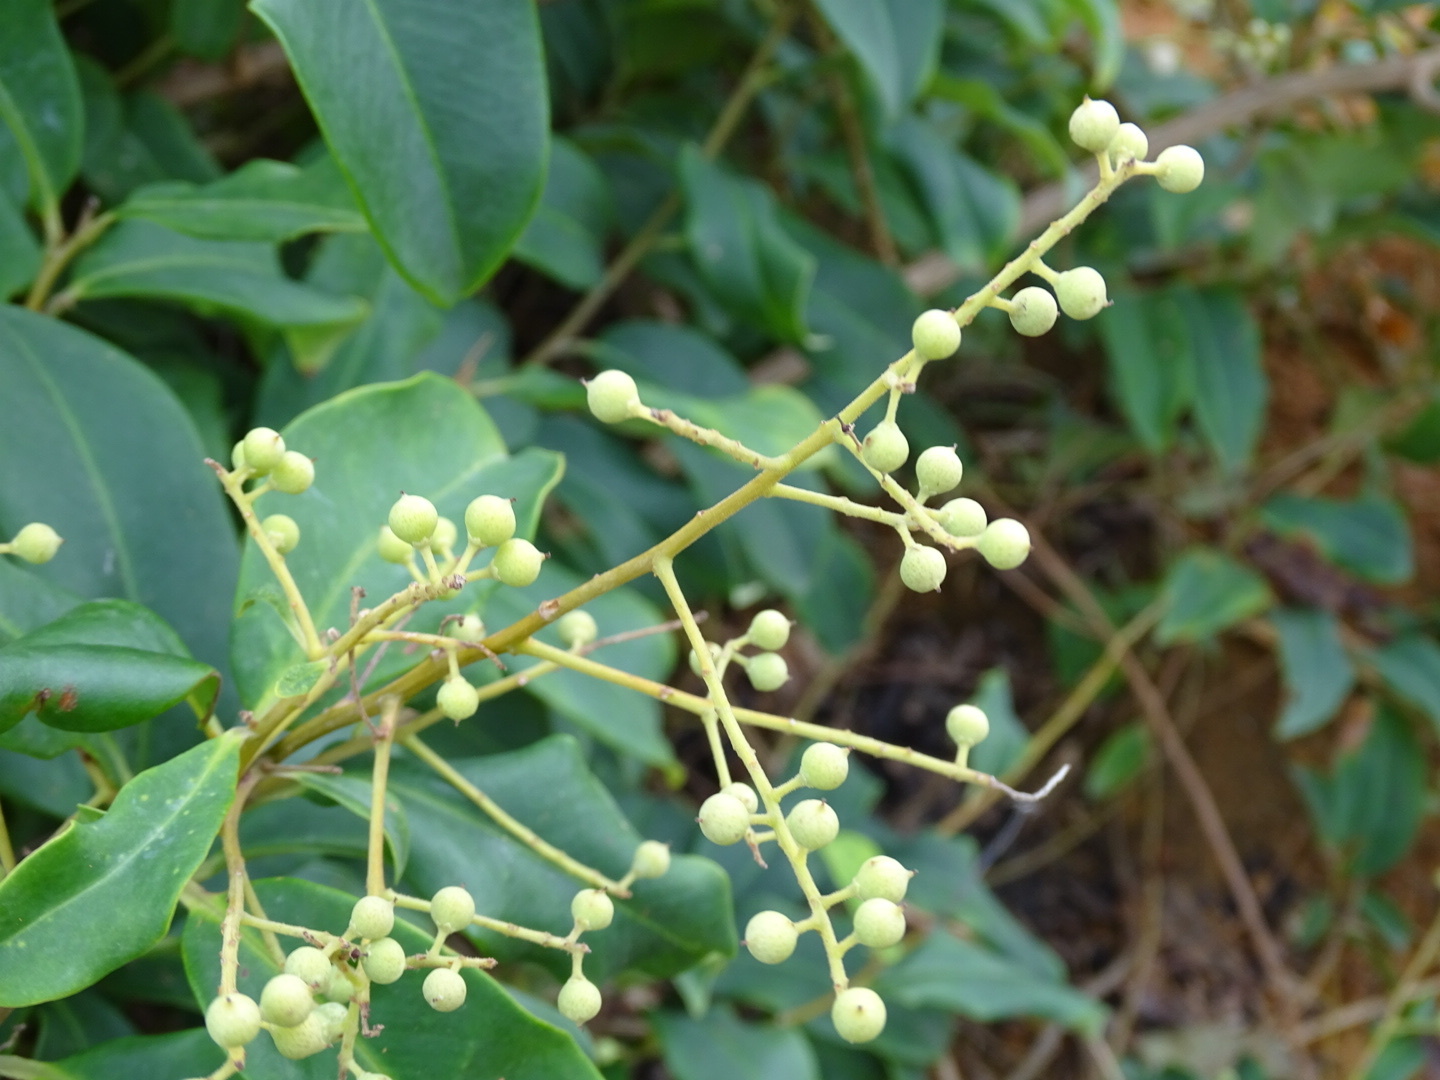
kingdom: Plantae
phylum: Tracheophyta
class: Magnoliopsida
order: Ericales
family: Primulaceae
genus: Embelia
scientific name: Embelia ribes
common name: Vidanga
